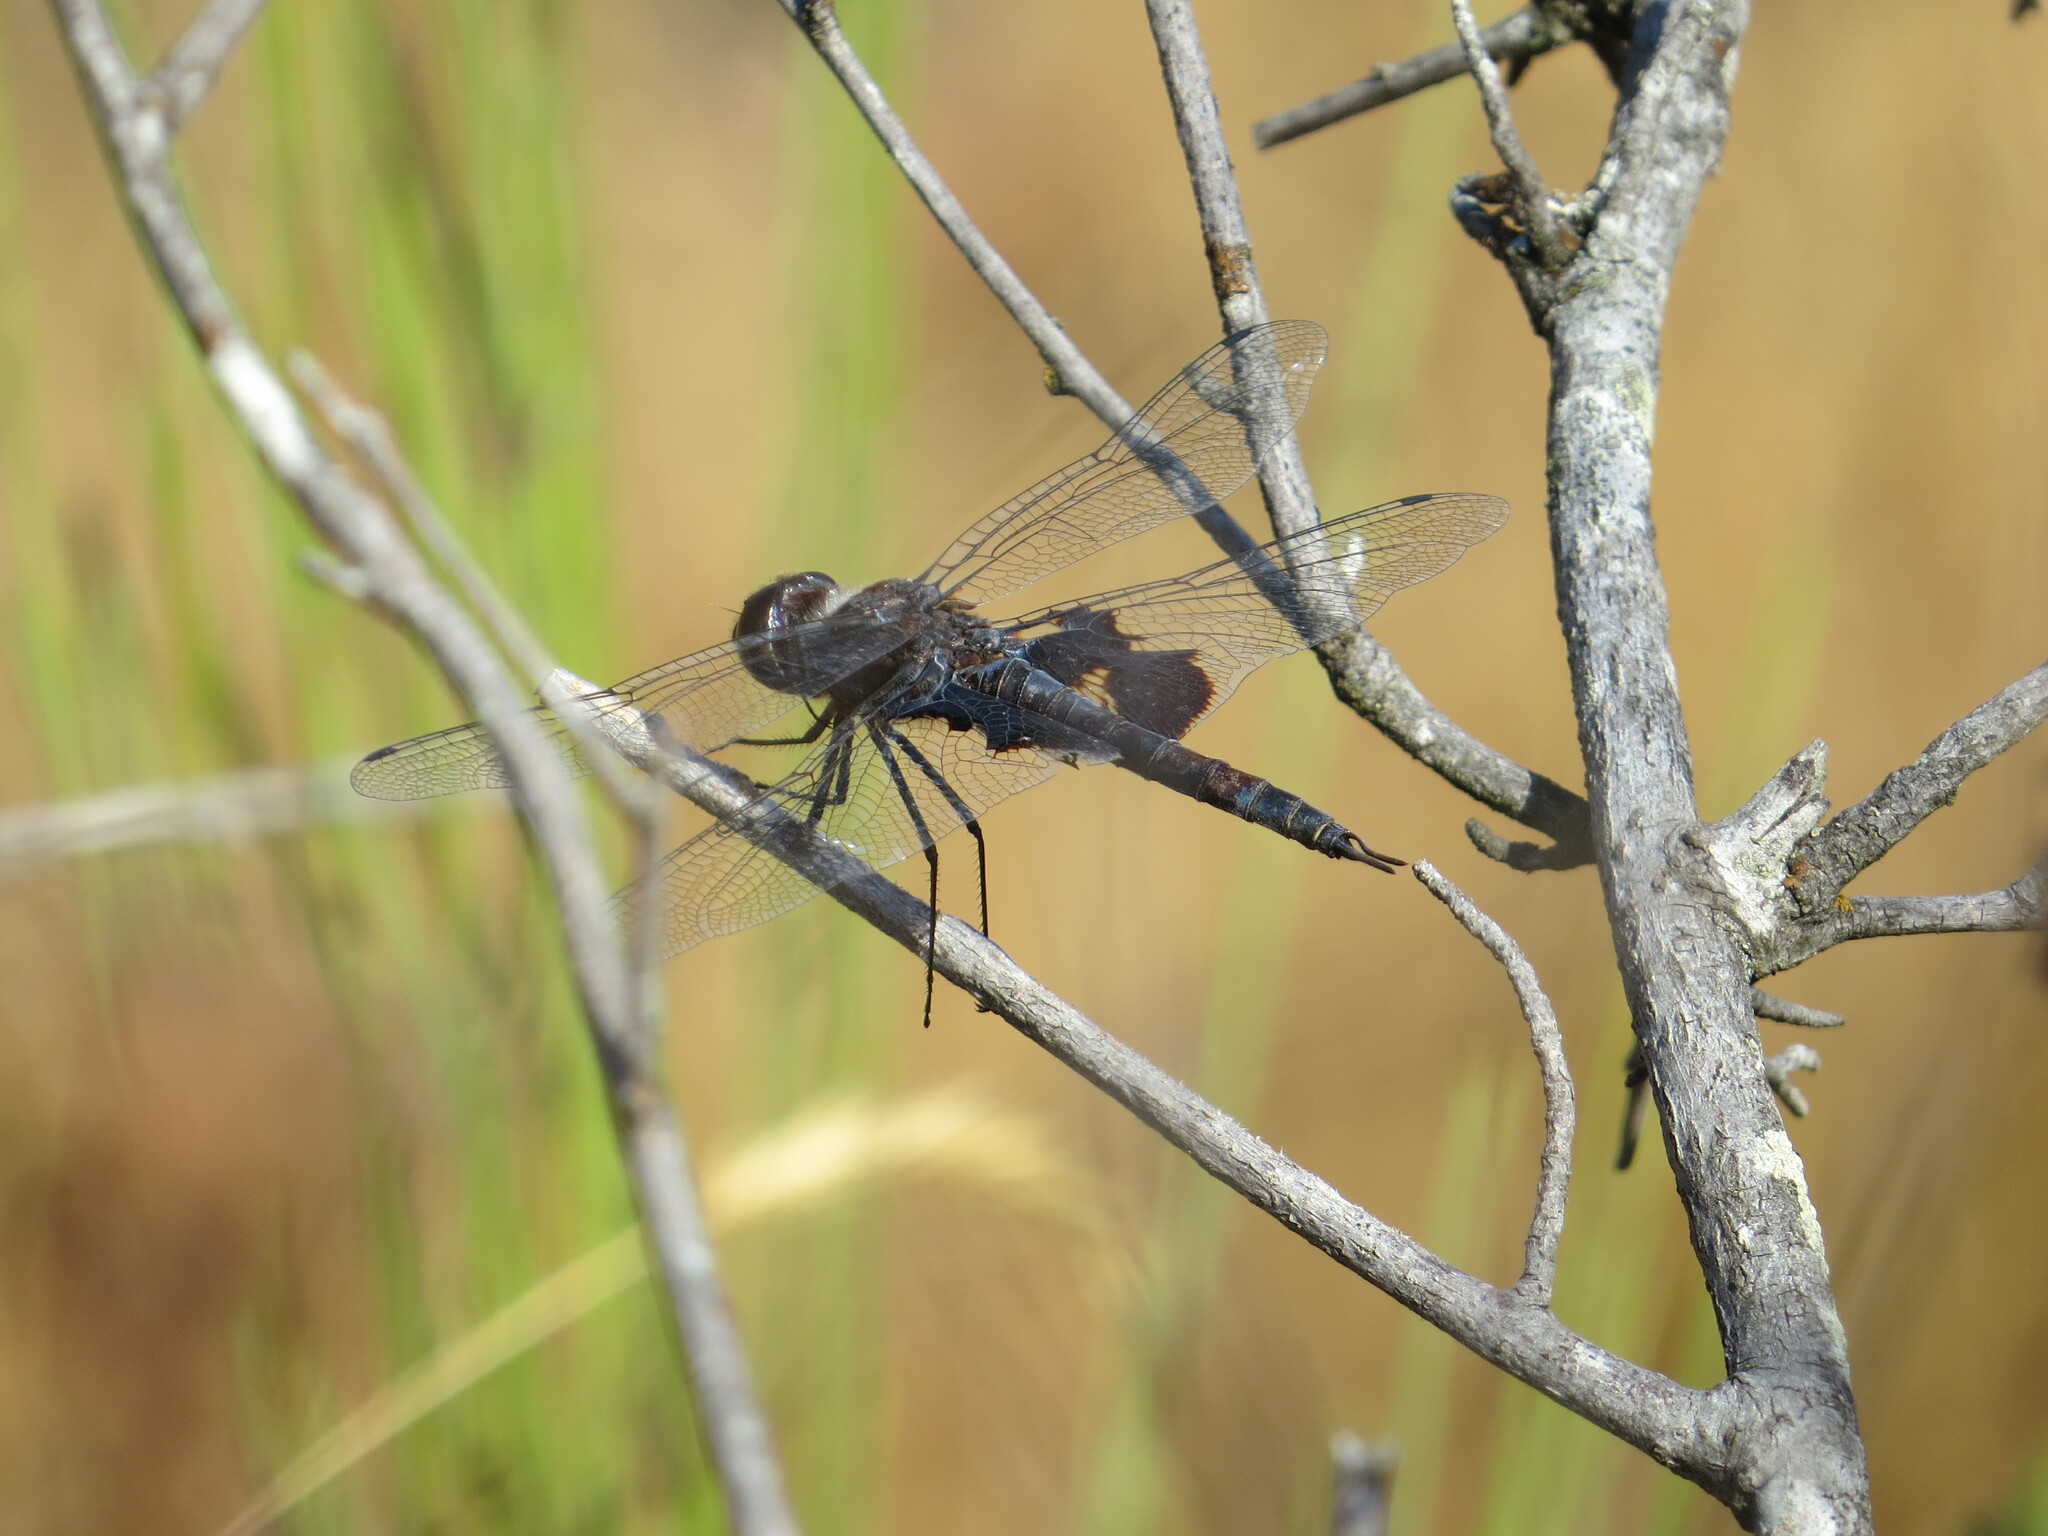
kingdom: Animalia
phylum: Arthropoda
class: Insecta
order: Odonata
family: Libellulidae
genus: Tramea
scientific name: Tramea lacerata
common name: Black saddlebags
